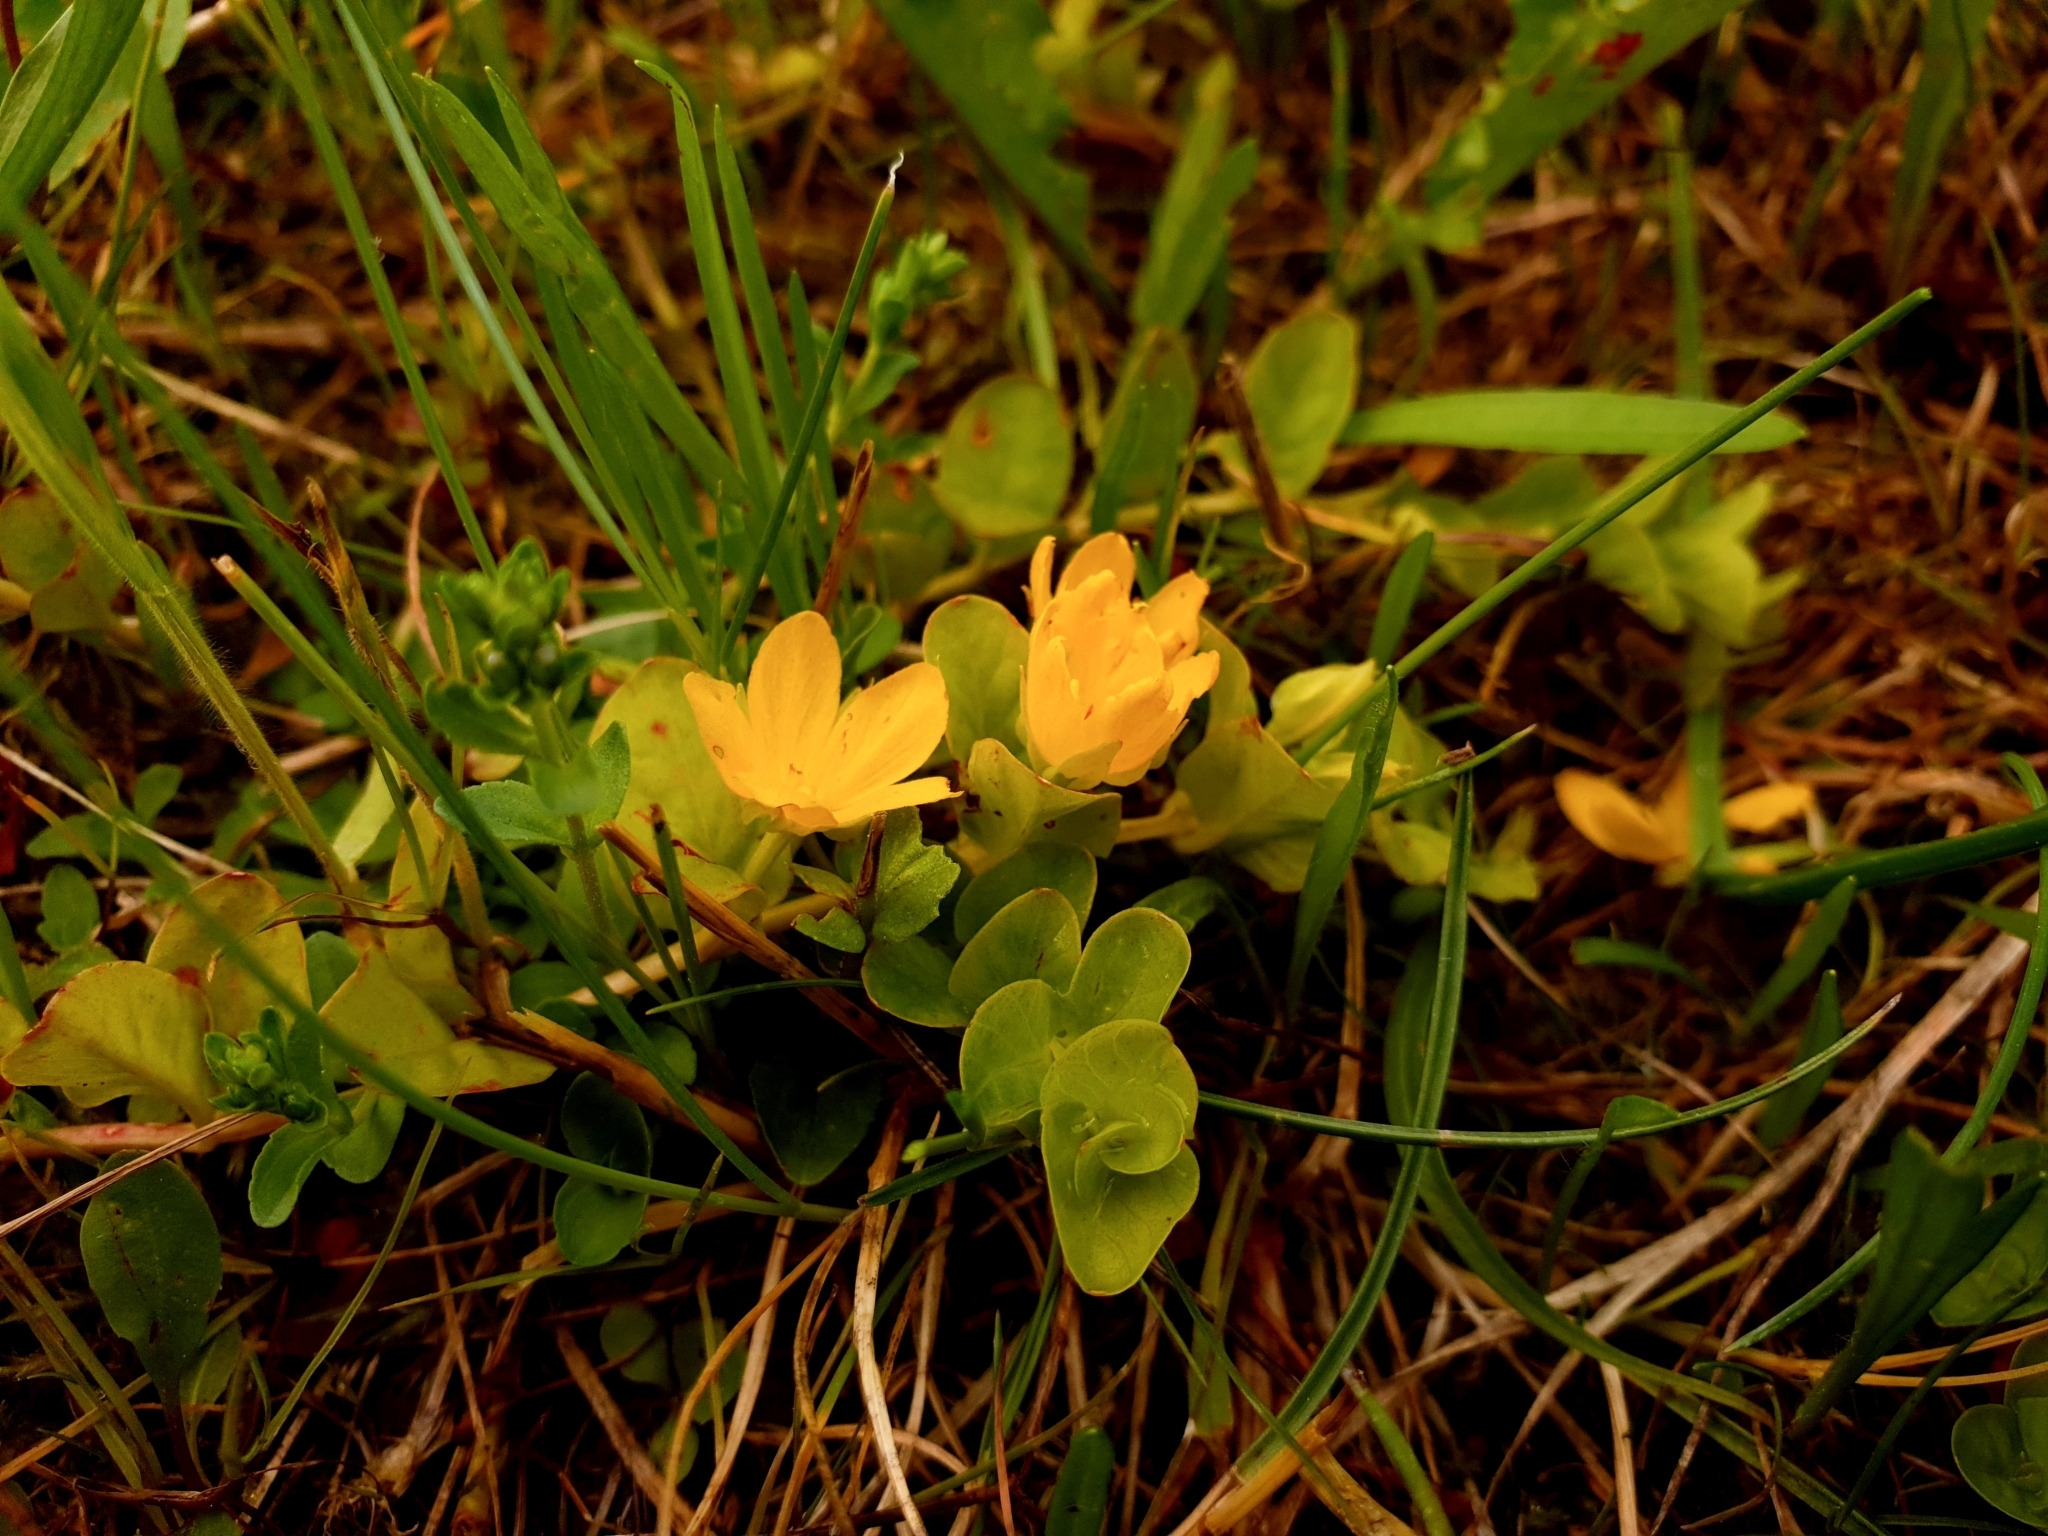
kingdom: Plantae
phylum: Tracheophyta
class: Magnoliopsida
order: Ericales
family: Primulaceae
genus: Lysimachia
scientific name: Lysimachia nummularia
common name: Moneywort
